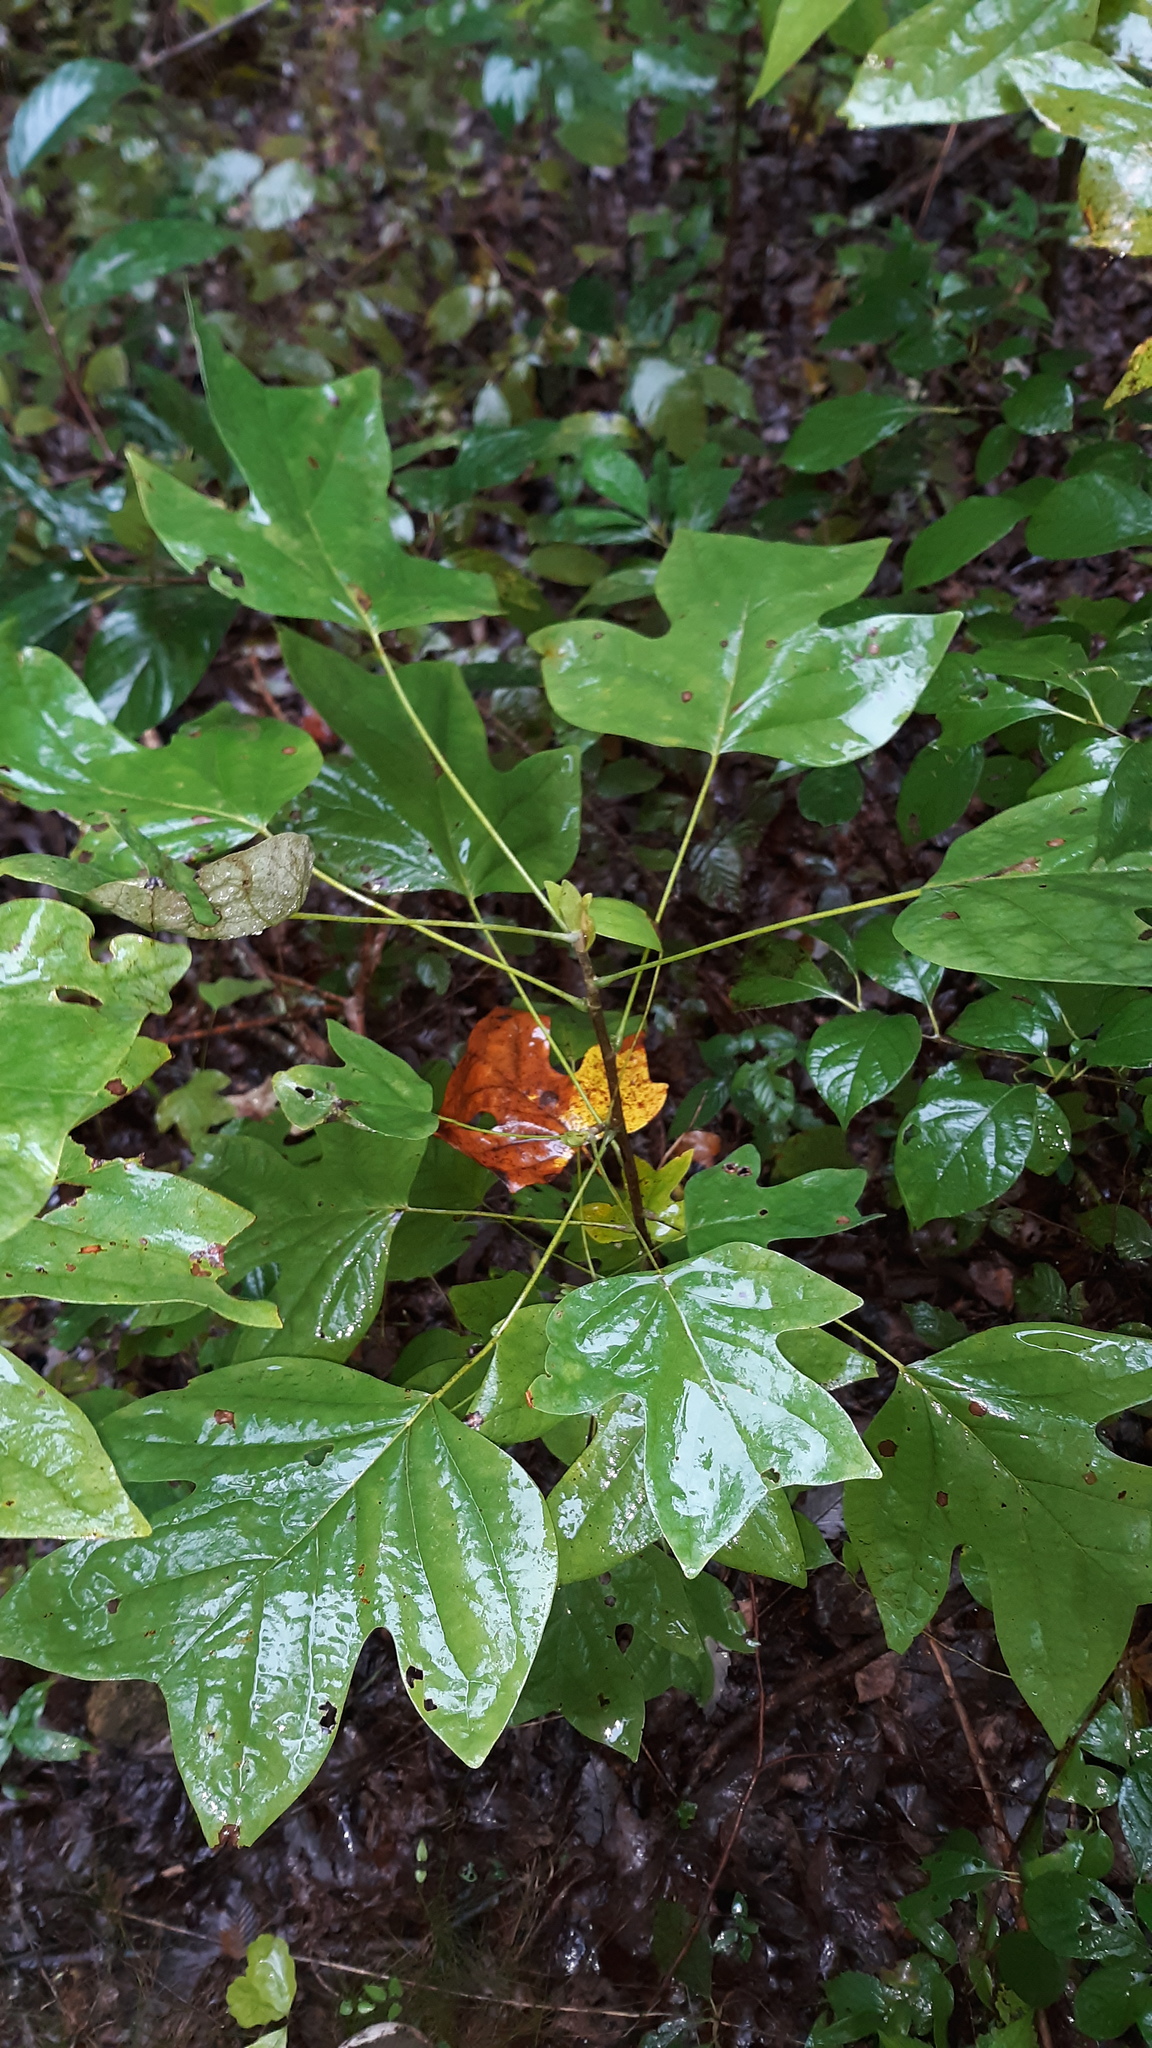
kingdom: Plantae
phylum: Tracheophyta
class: Magnoliopsida
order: Magnoliales
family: Magnoliaceae
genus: Liriodendron
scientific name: Liriodendron tulipifera
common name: Tulip tree
